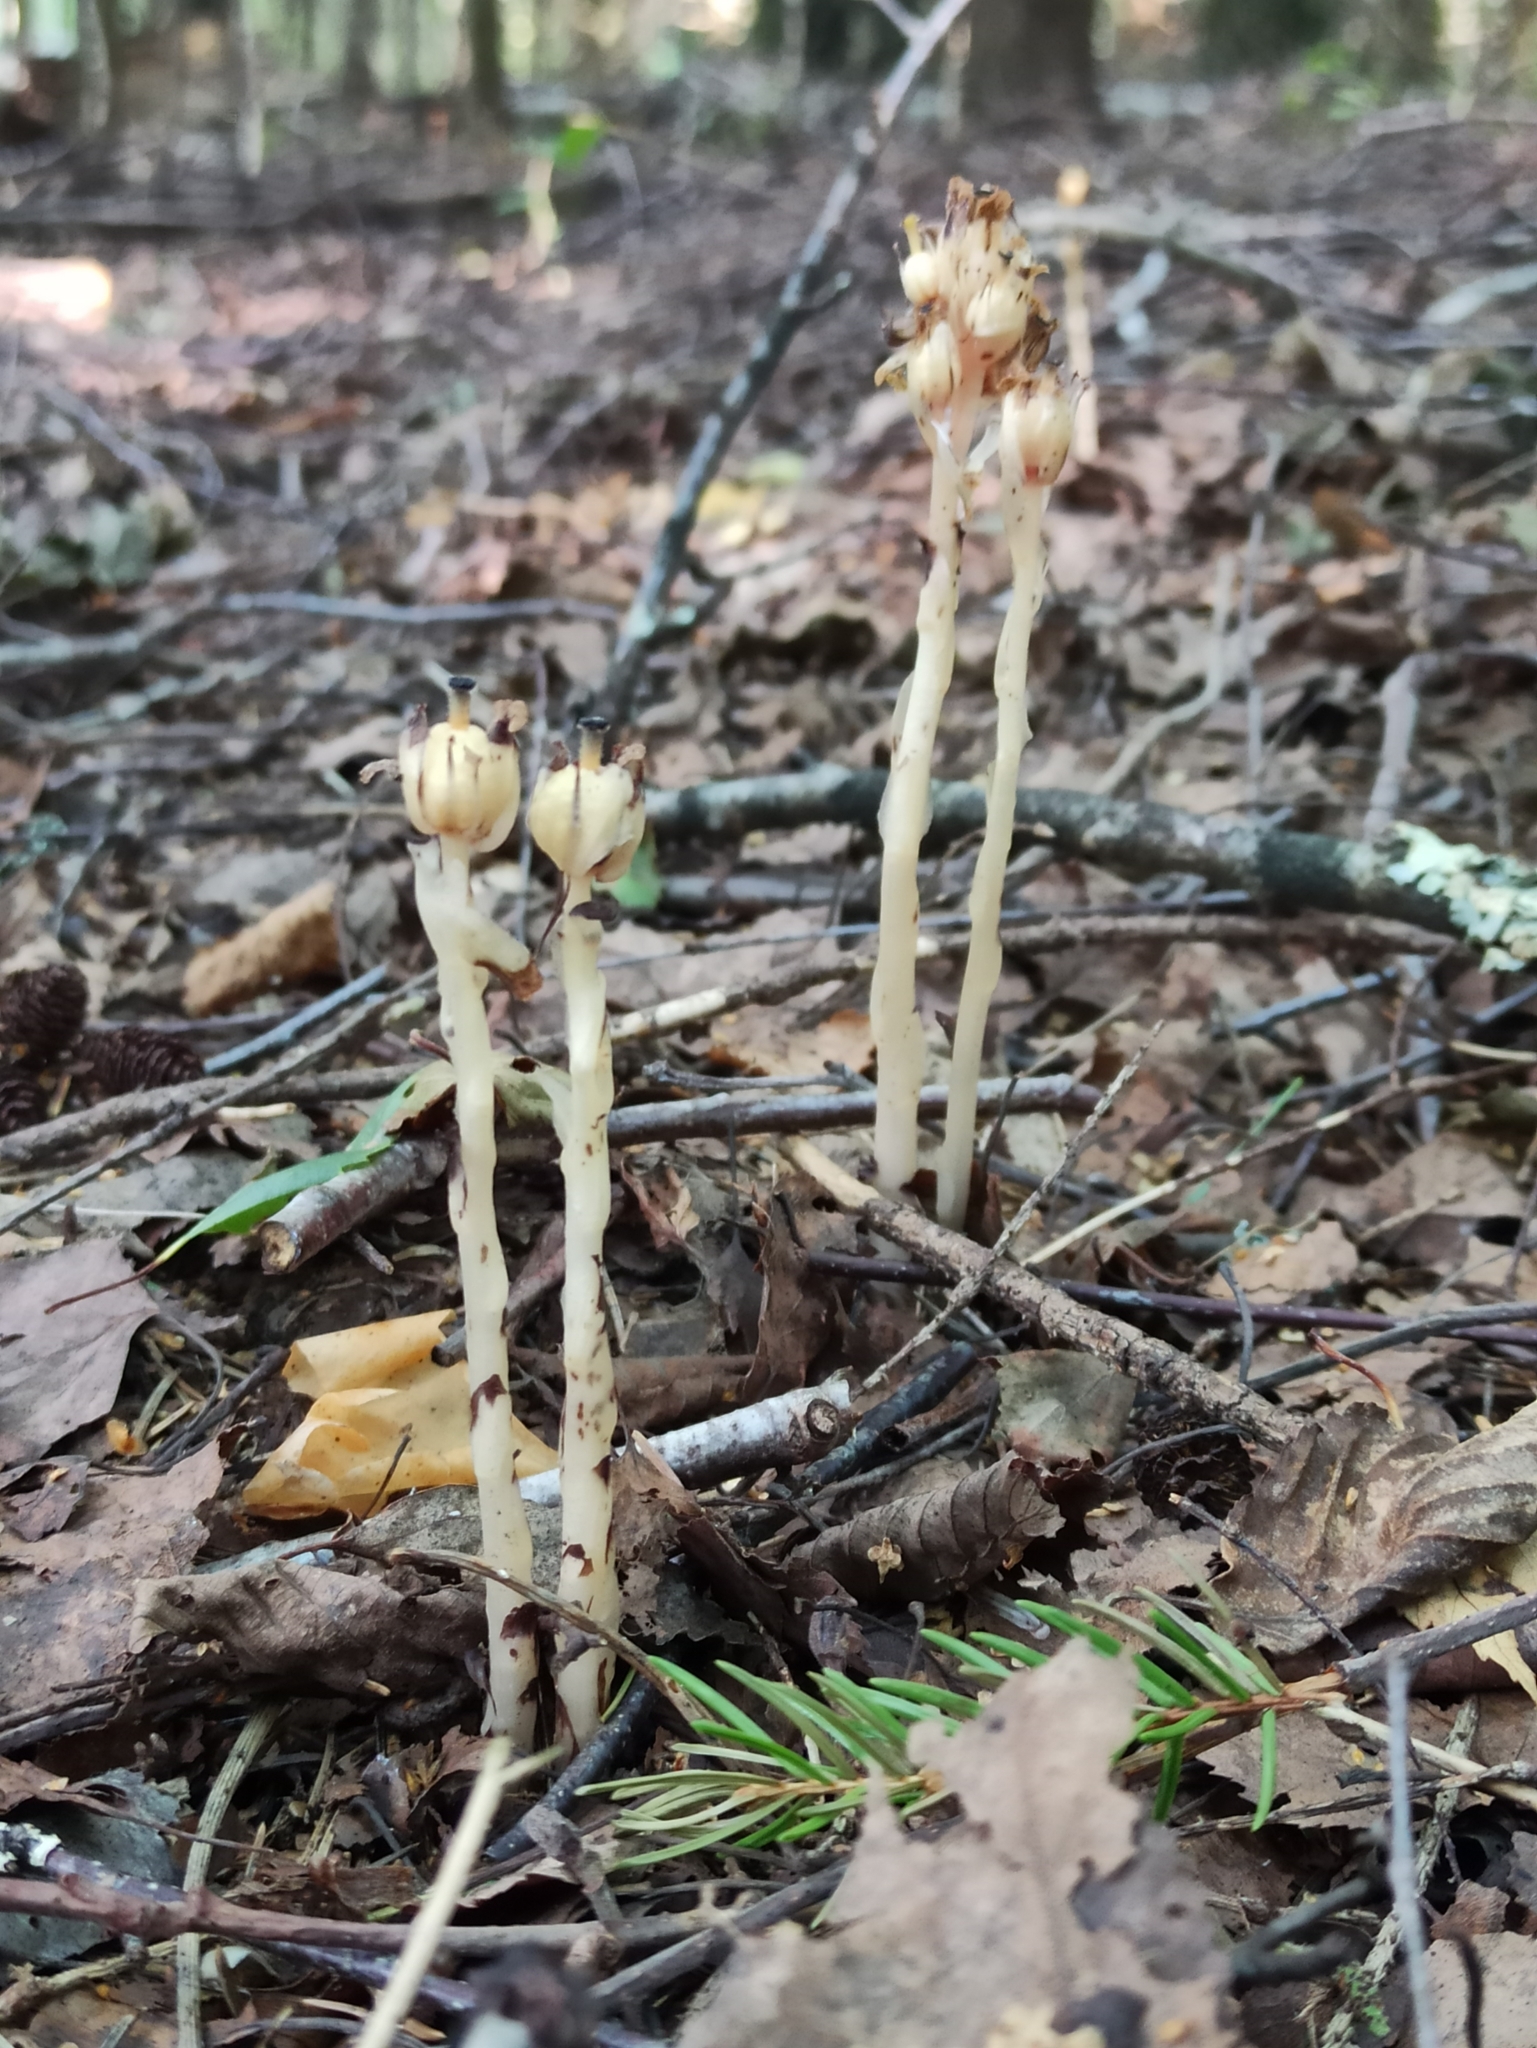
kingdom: Plantae
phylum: Tracheophyta
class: Magnoliopsida
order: Ericales
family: Ericaceae
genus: Hypopitys
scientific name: Hypopitys monotropa
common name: Yellow bird's-nest
